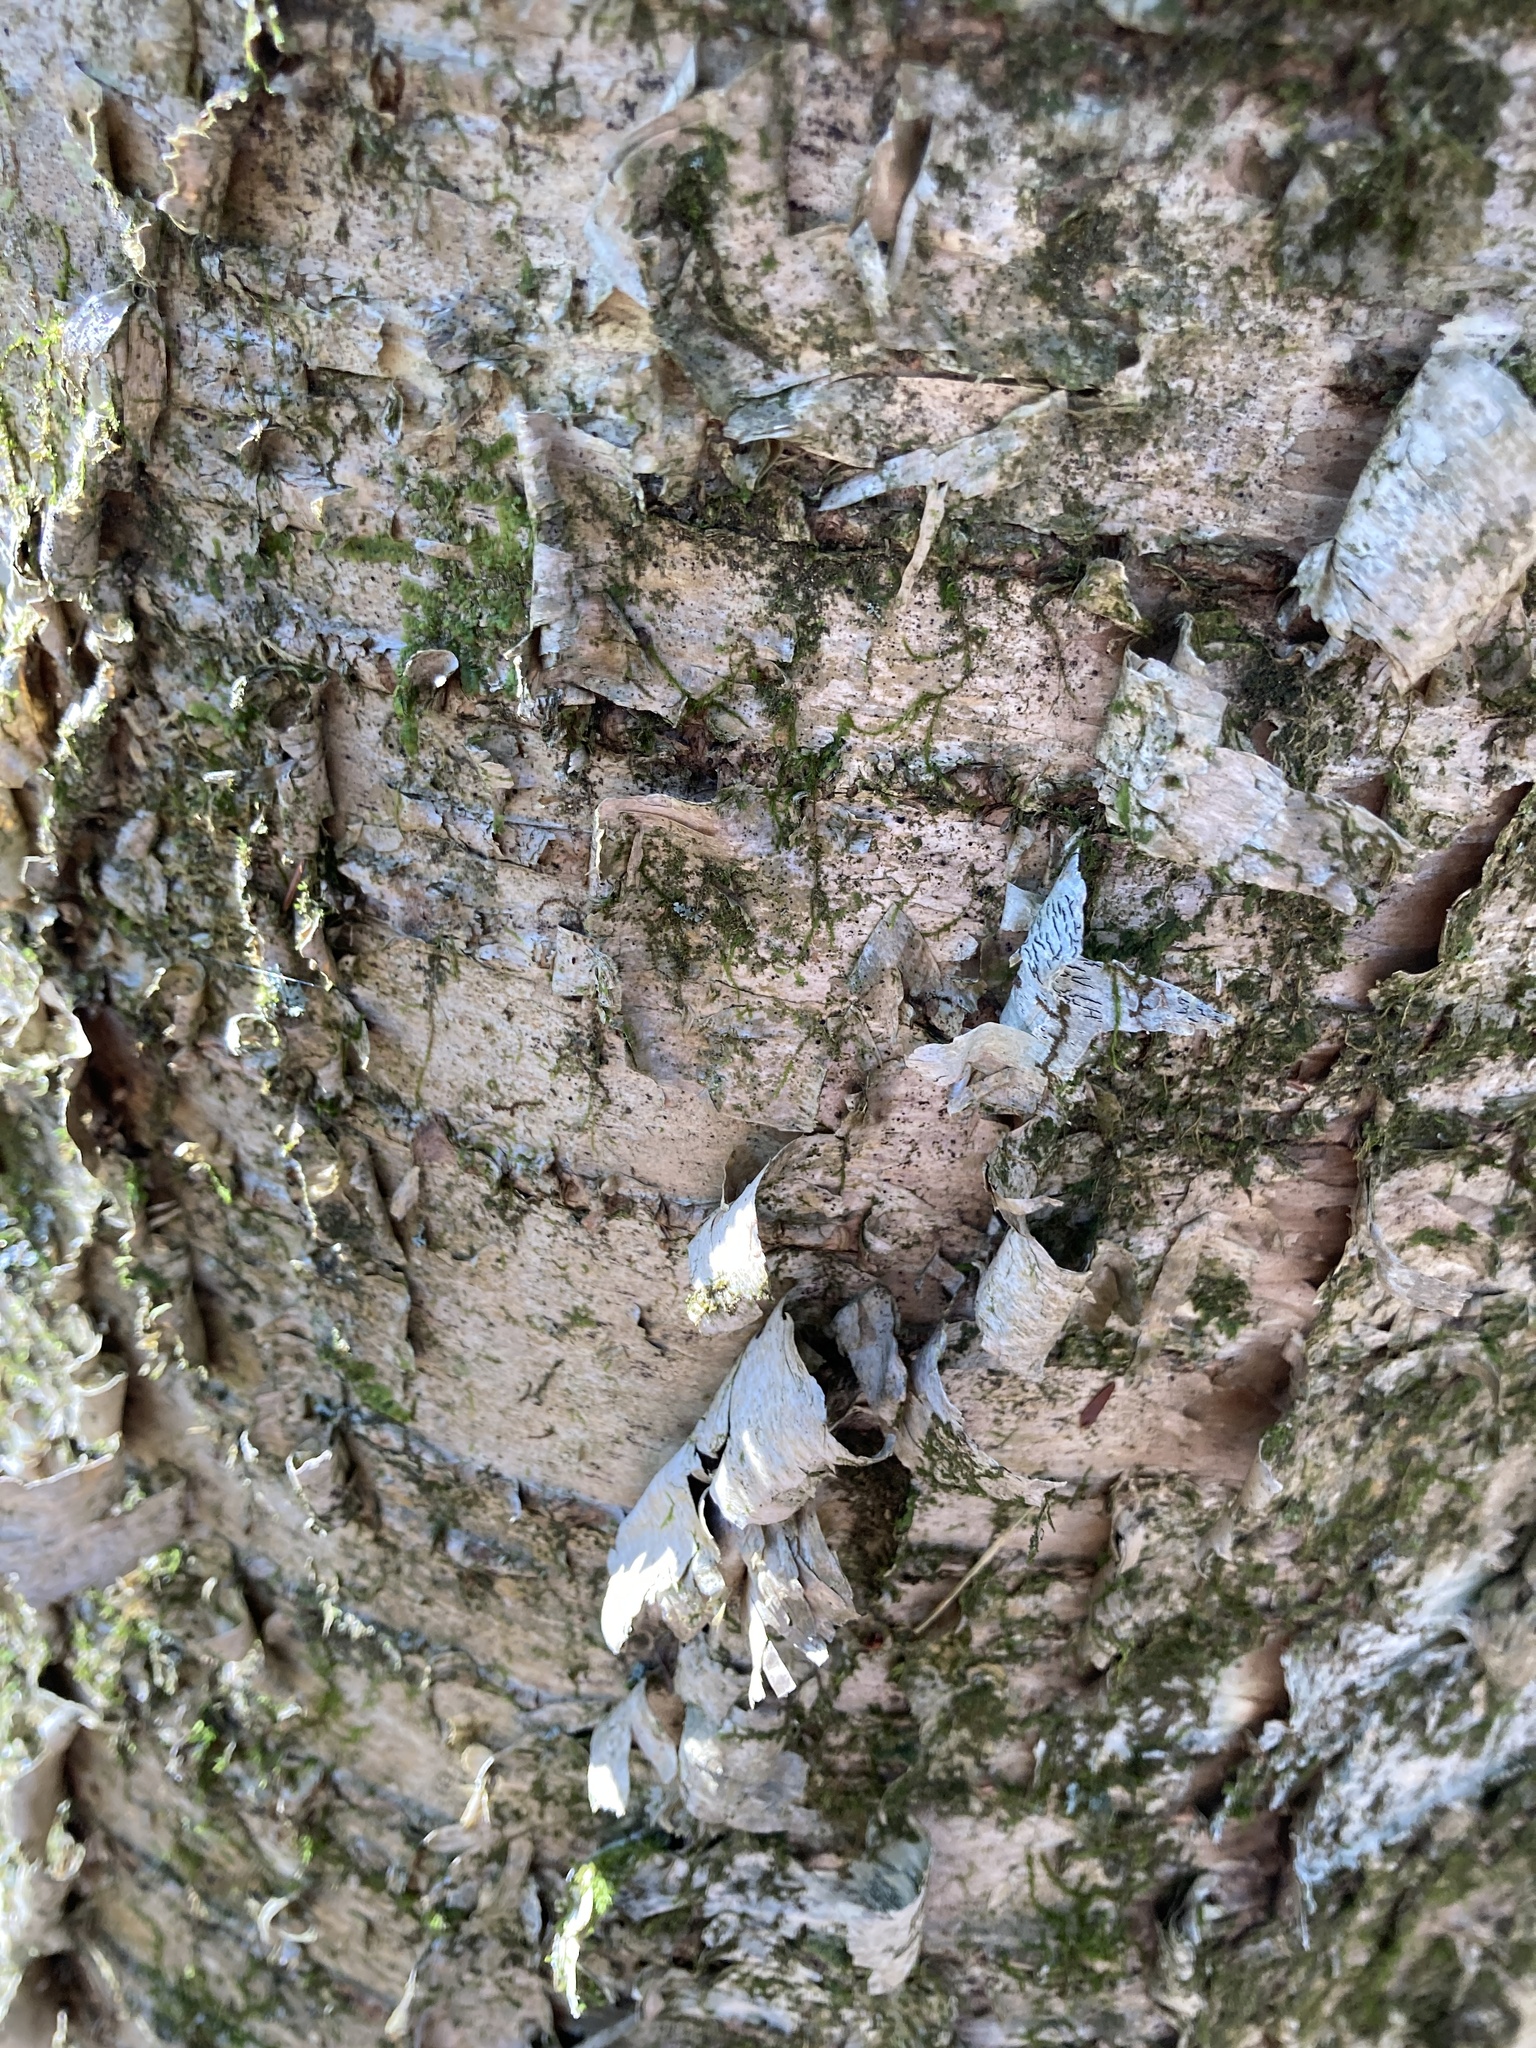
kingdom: Plantae
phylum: Tracheophyta
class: Magnoliopsida
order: Fagales
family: Betulaceae
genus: Betula
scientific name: Betula alleghaniensis
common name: Yellow birch
